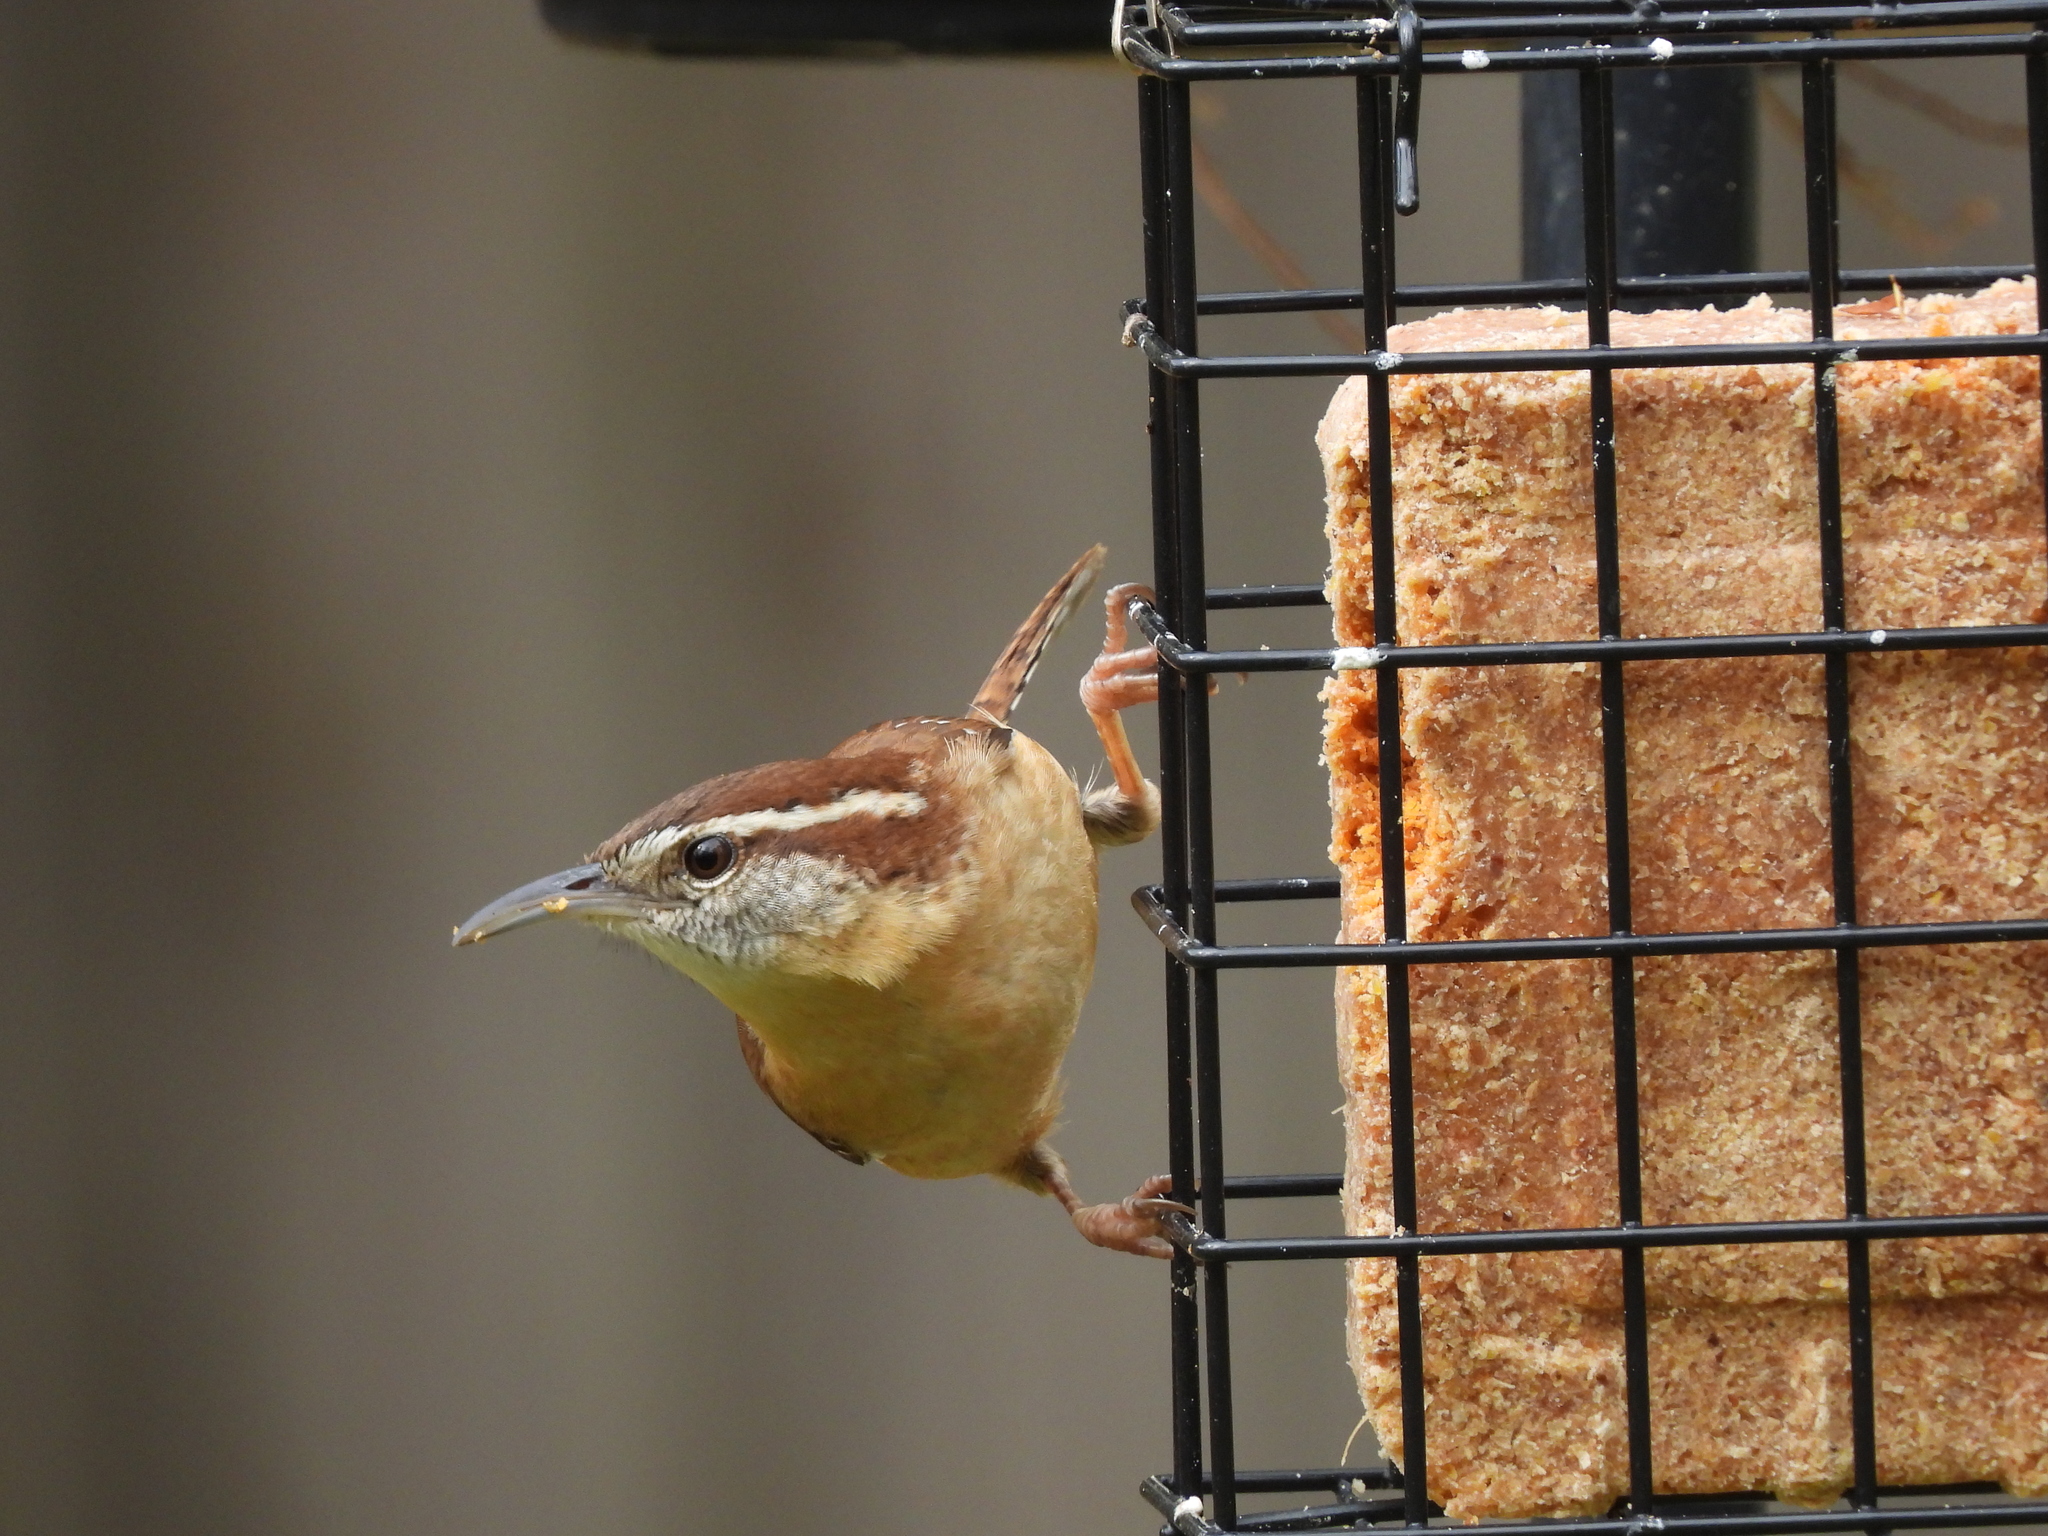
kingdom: Animalia
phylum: Chordata
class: Aves
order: Passeriformes
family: Troglodytidae
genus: Thryothorus
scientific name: Thryothorus ludovicianus
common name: Carolina wren
